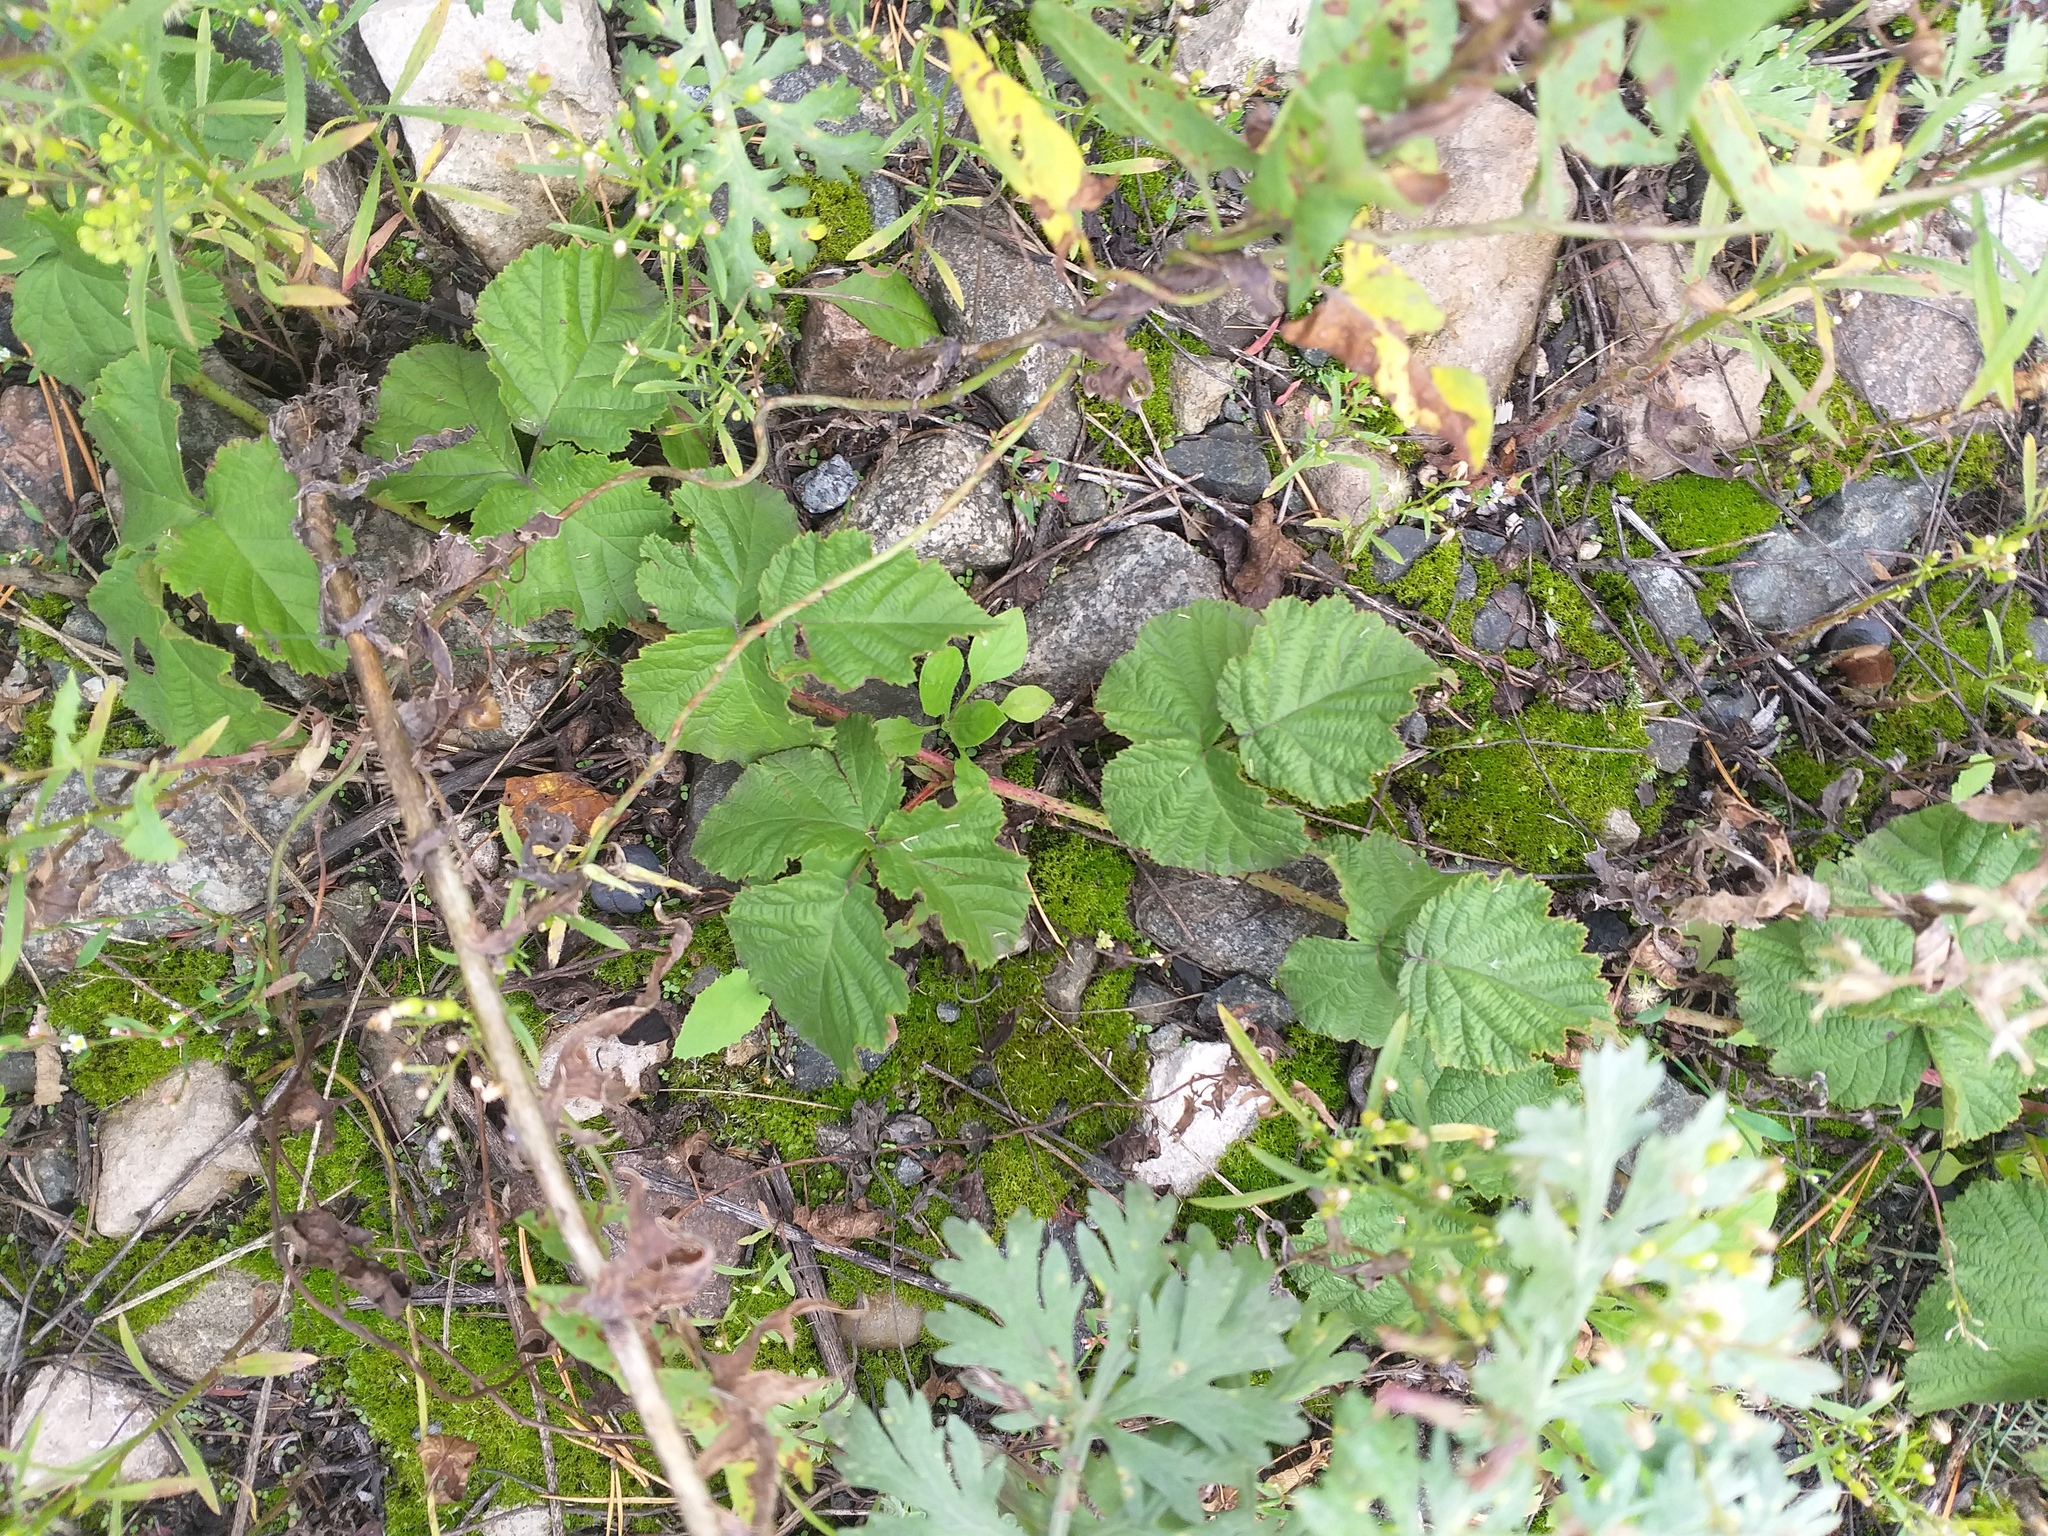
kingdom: Plantae
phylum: Tracheophyta
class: Magnoliopsida
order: Rosales
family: Rosaceae
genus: Rubus
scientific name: Rubus caesius
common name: Dewberry
